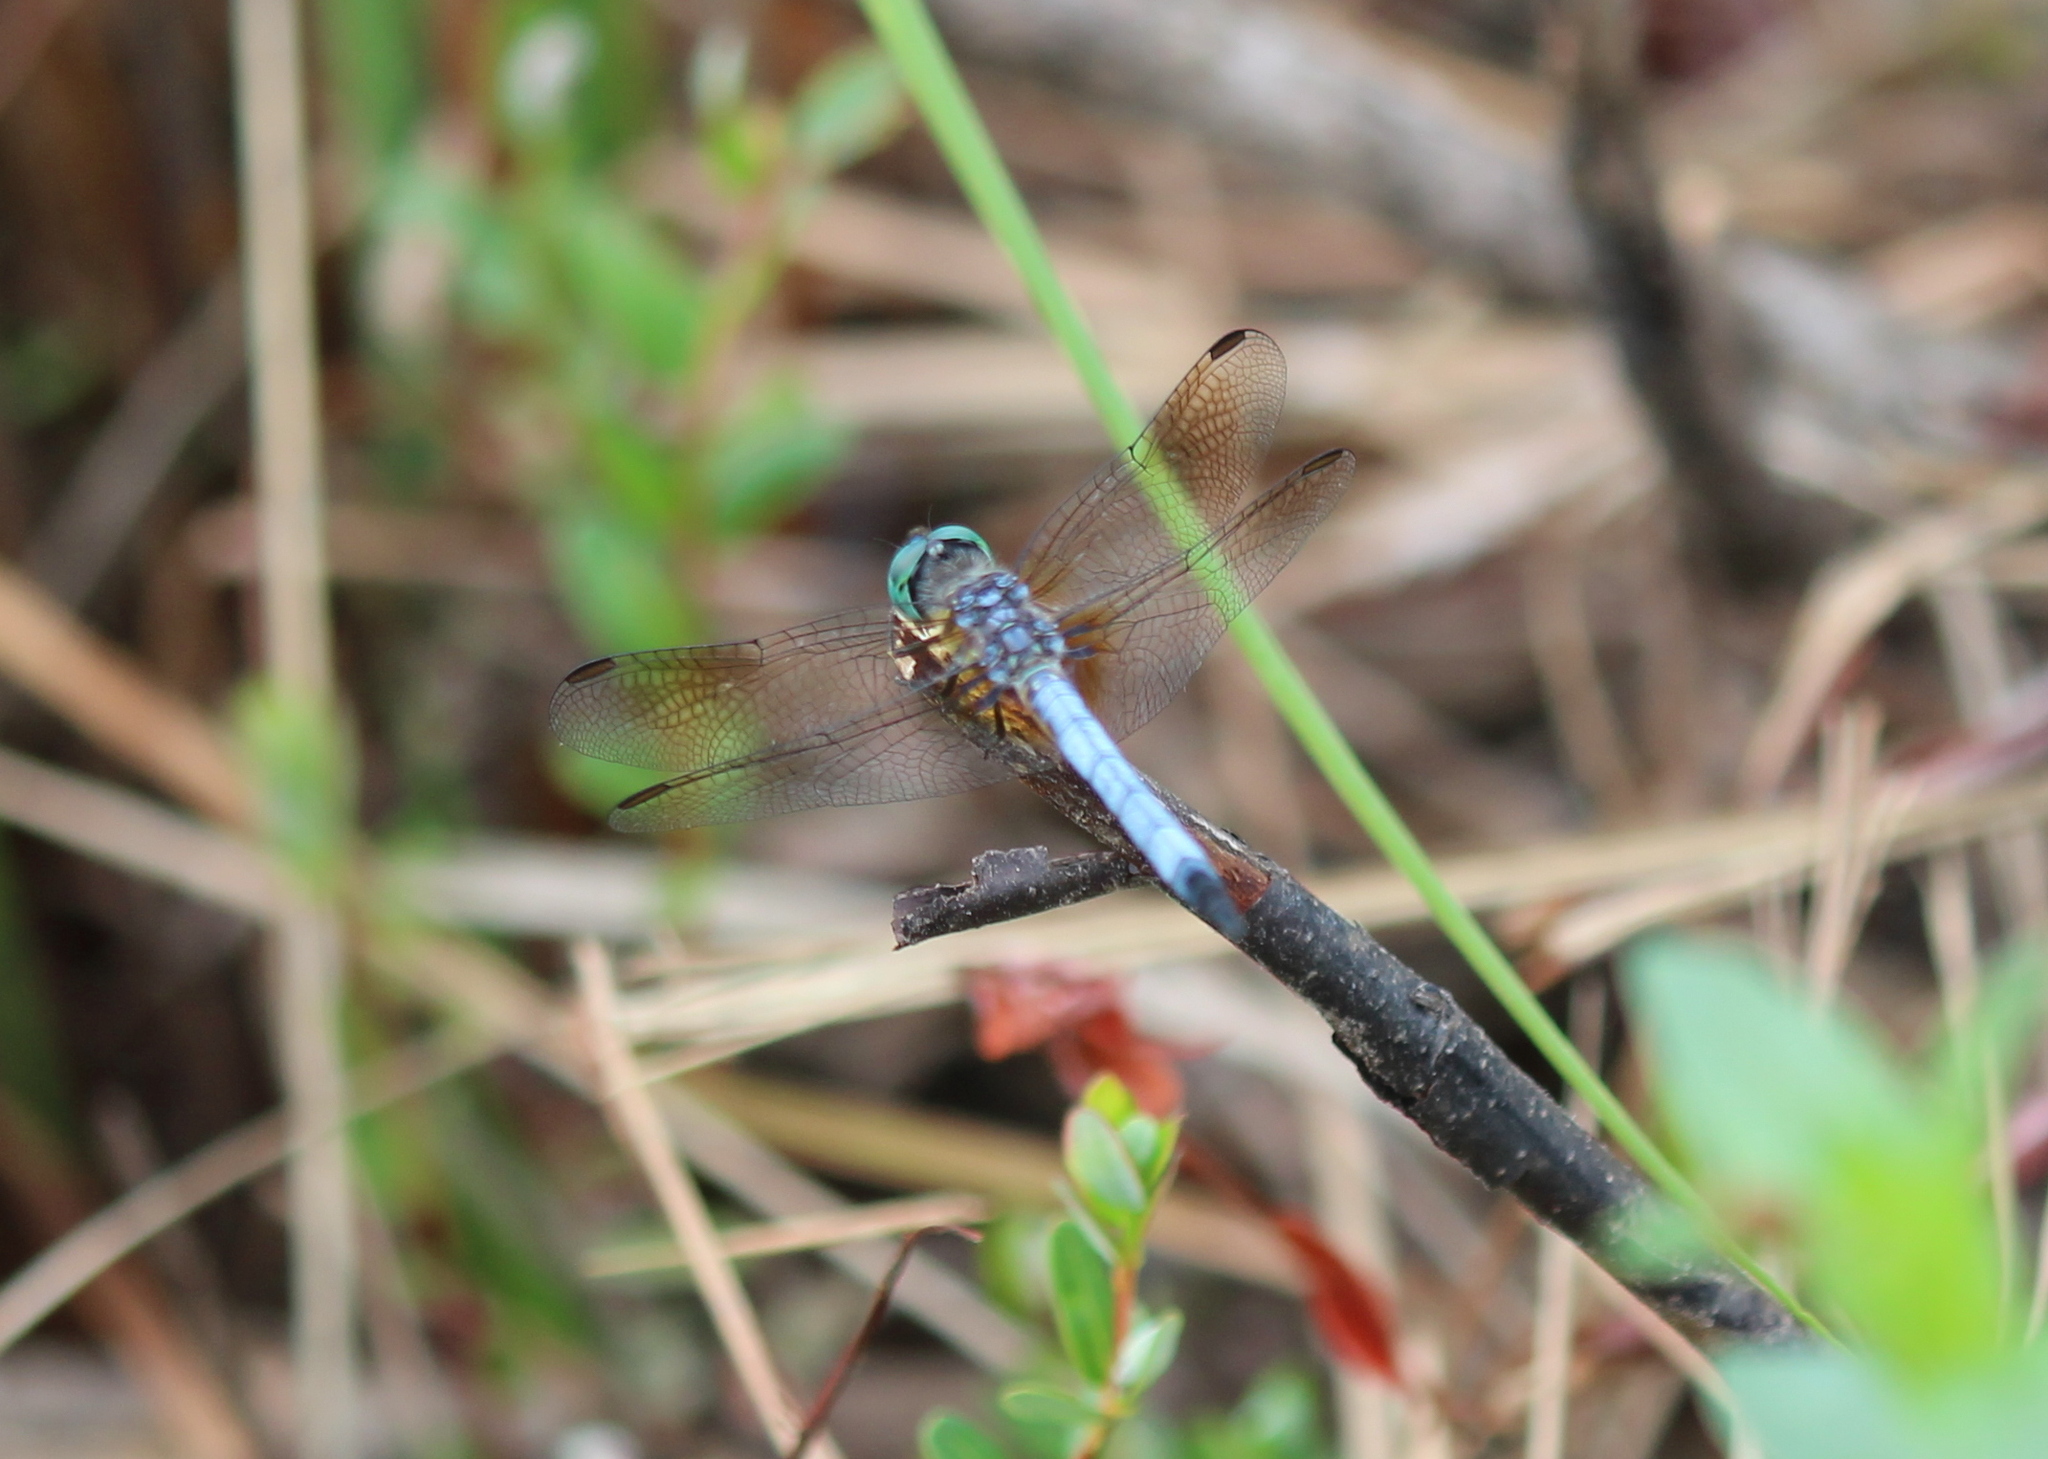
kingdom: Animalia
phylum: Arthropoda
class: Insecta
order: Odonata
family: Libellulidae
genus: Pachydiplax
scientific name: Pachydiplax longipennis
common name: Blue dasher
